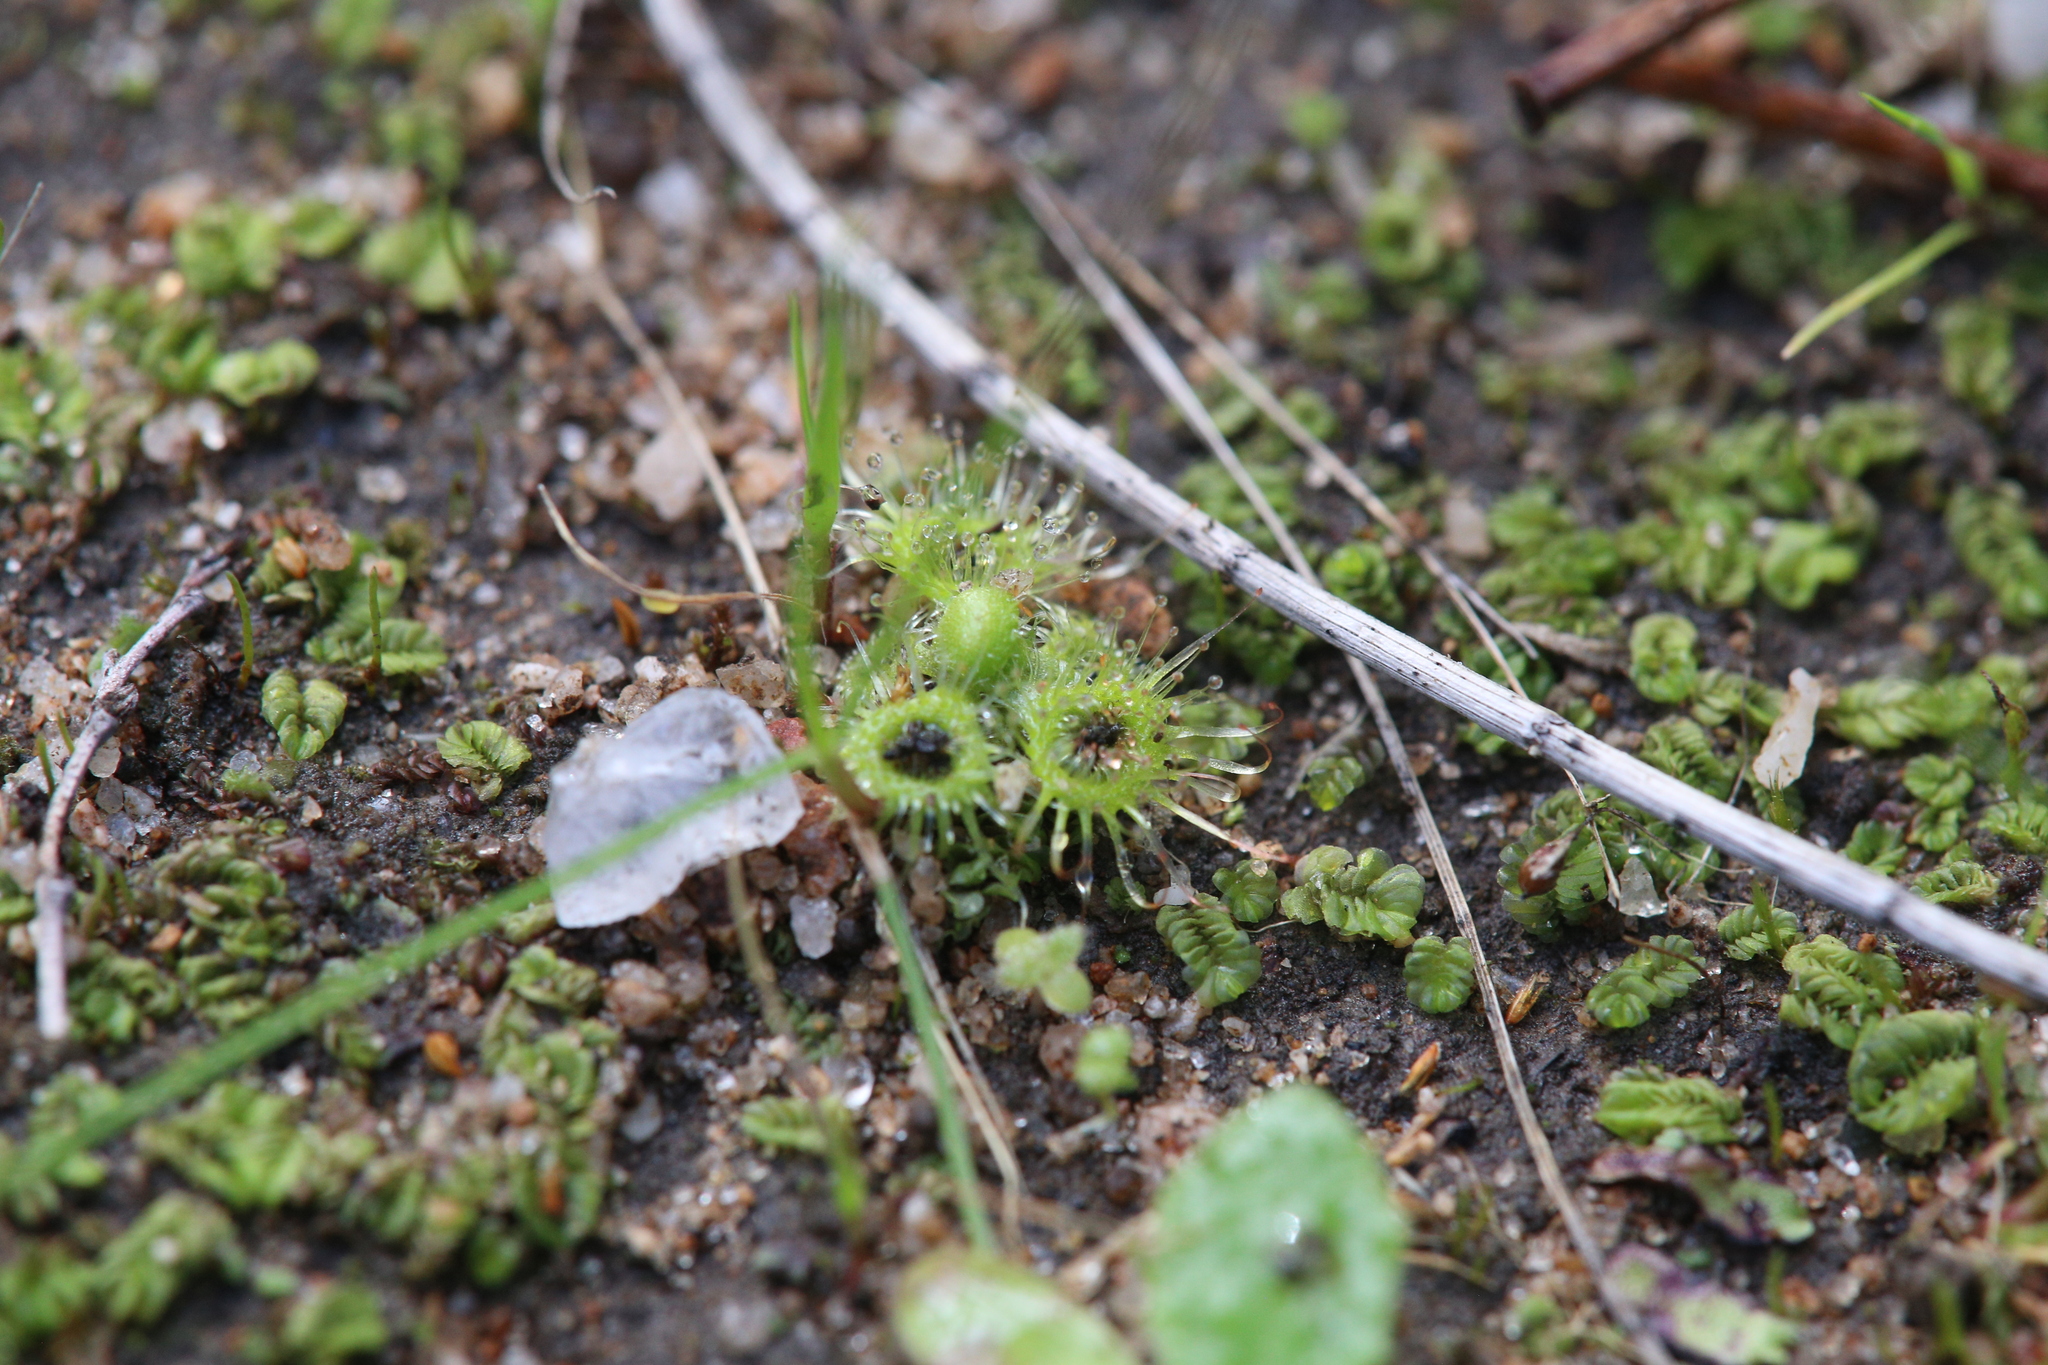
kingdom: Plantae
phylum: Tracheophyta
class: Magnoliopsida
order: Caryophyllales
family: Droseraceae
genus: Drosera
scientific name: Drosera glanduligera
